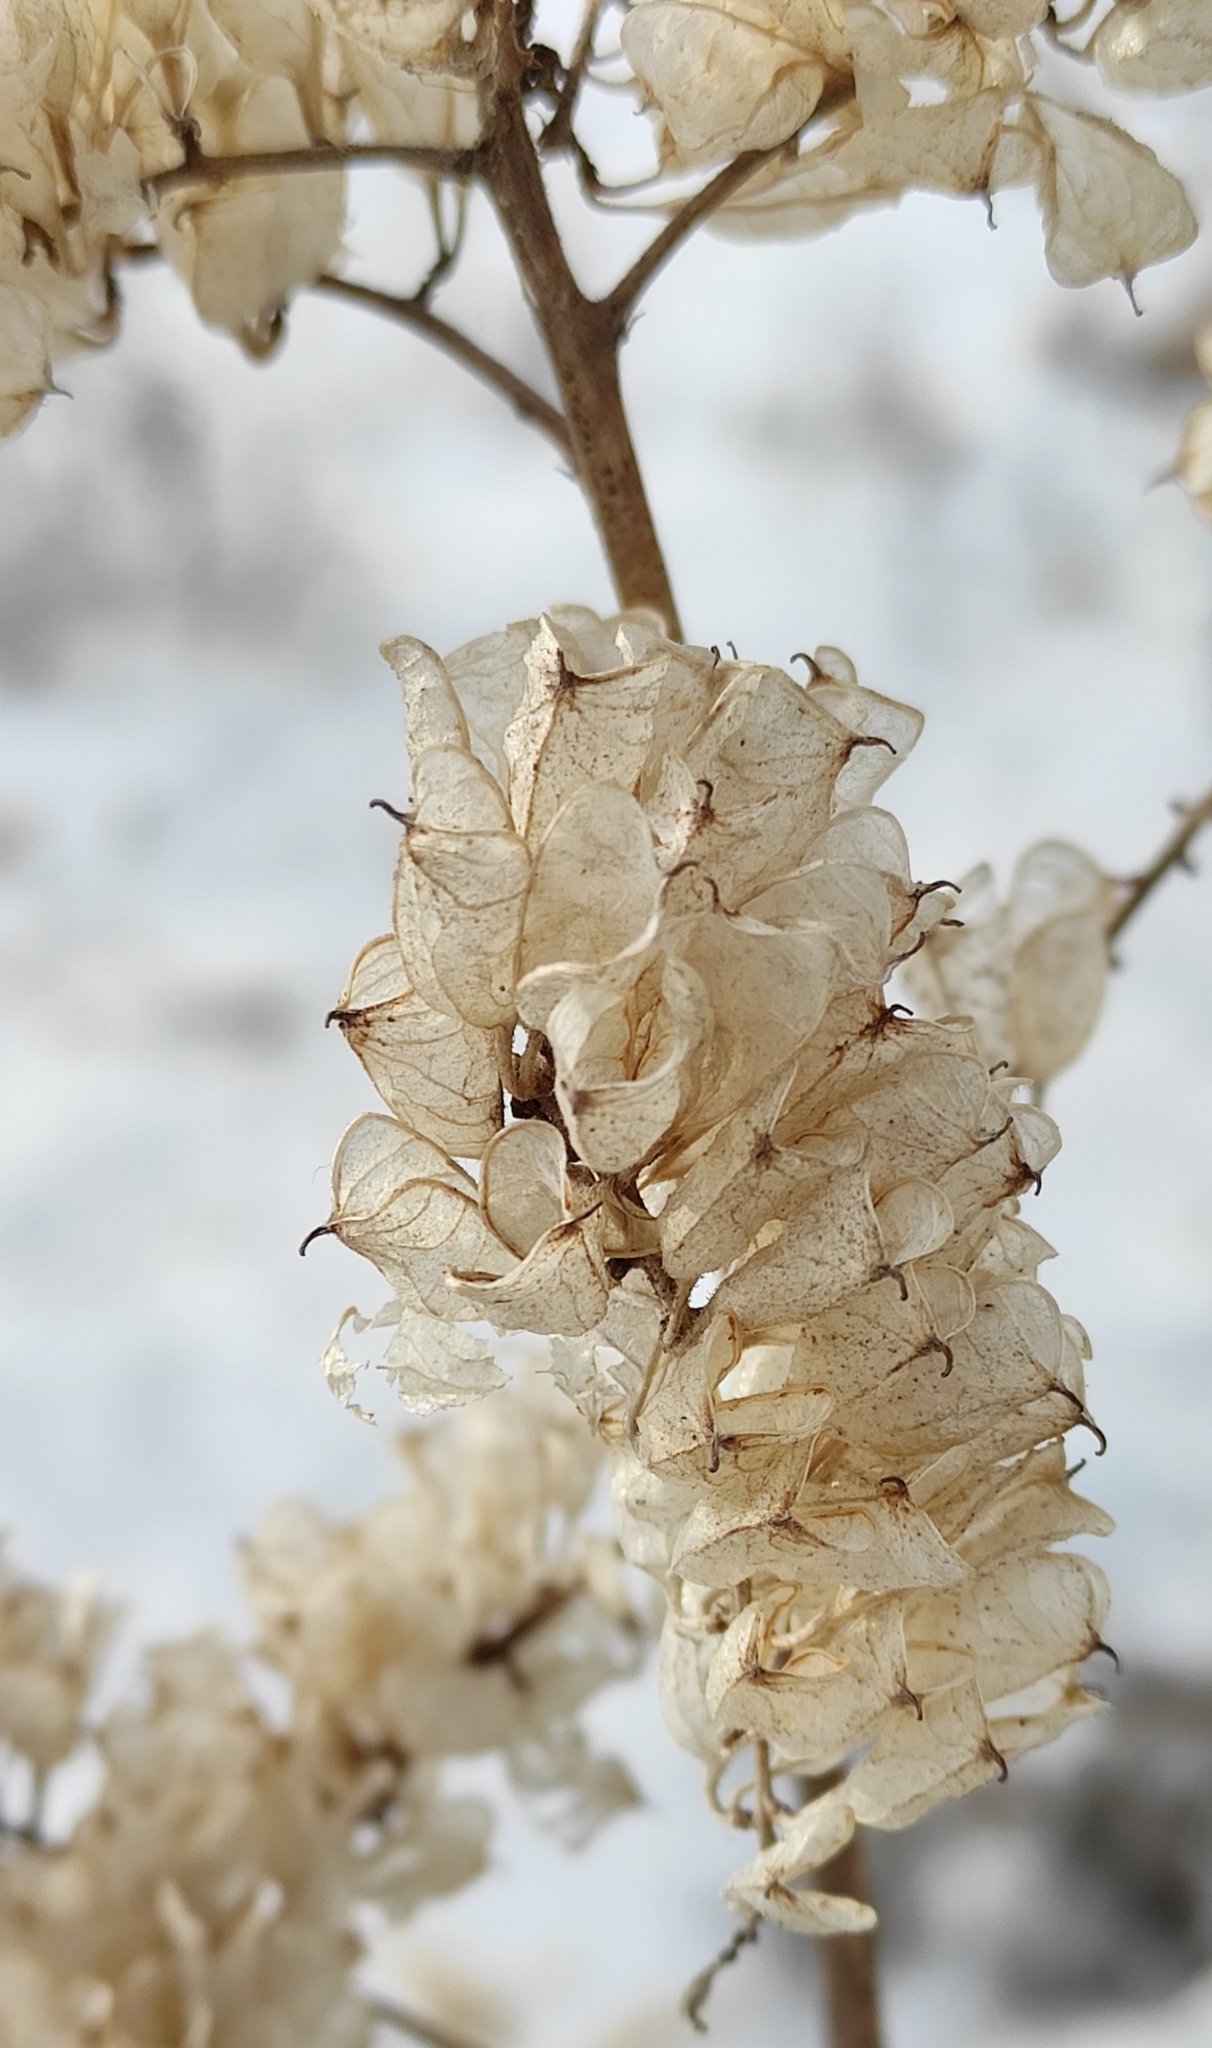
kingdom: Plantae
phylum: Tracheophyta
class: Magnoliopsida
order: Ranunculales
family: Ranunculaceae
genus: Actaea
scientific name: Actaea cimicifuga
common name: Chinese cimicifuga
